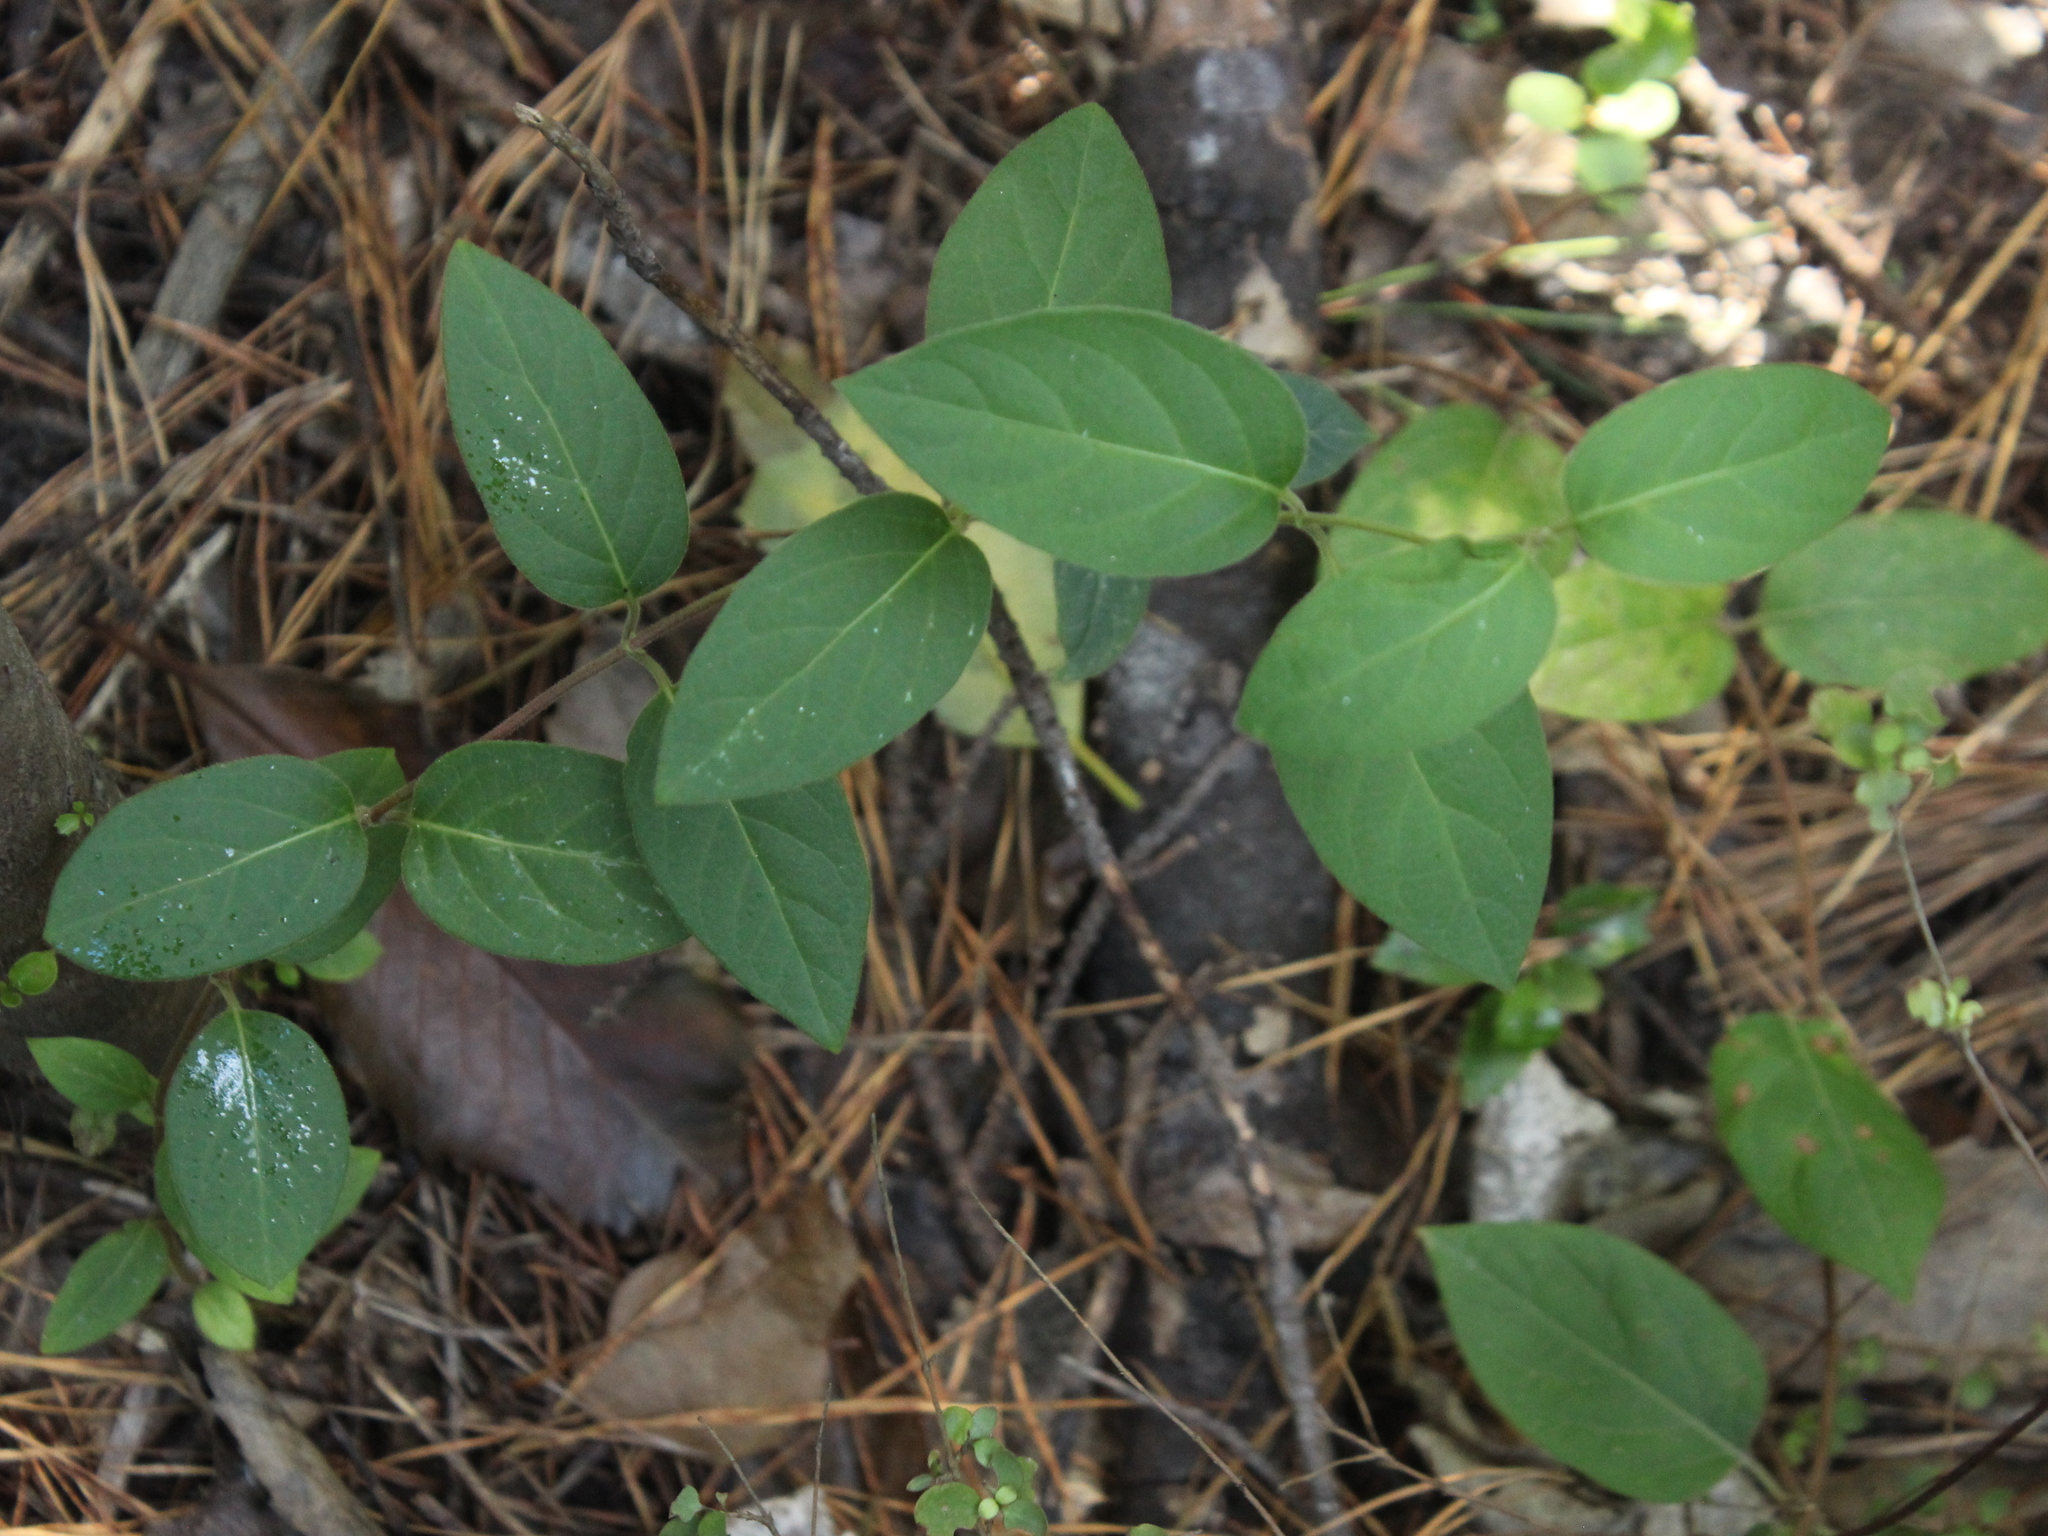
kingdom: Plantae
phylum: Tracheophyta
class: Magnoliopsida
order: Dipsacales
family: Caprifoliaceae
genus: Lonicera
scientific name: Lonicera japonica
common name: Japanese honeysuckle
